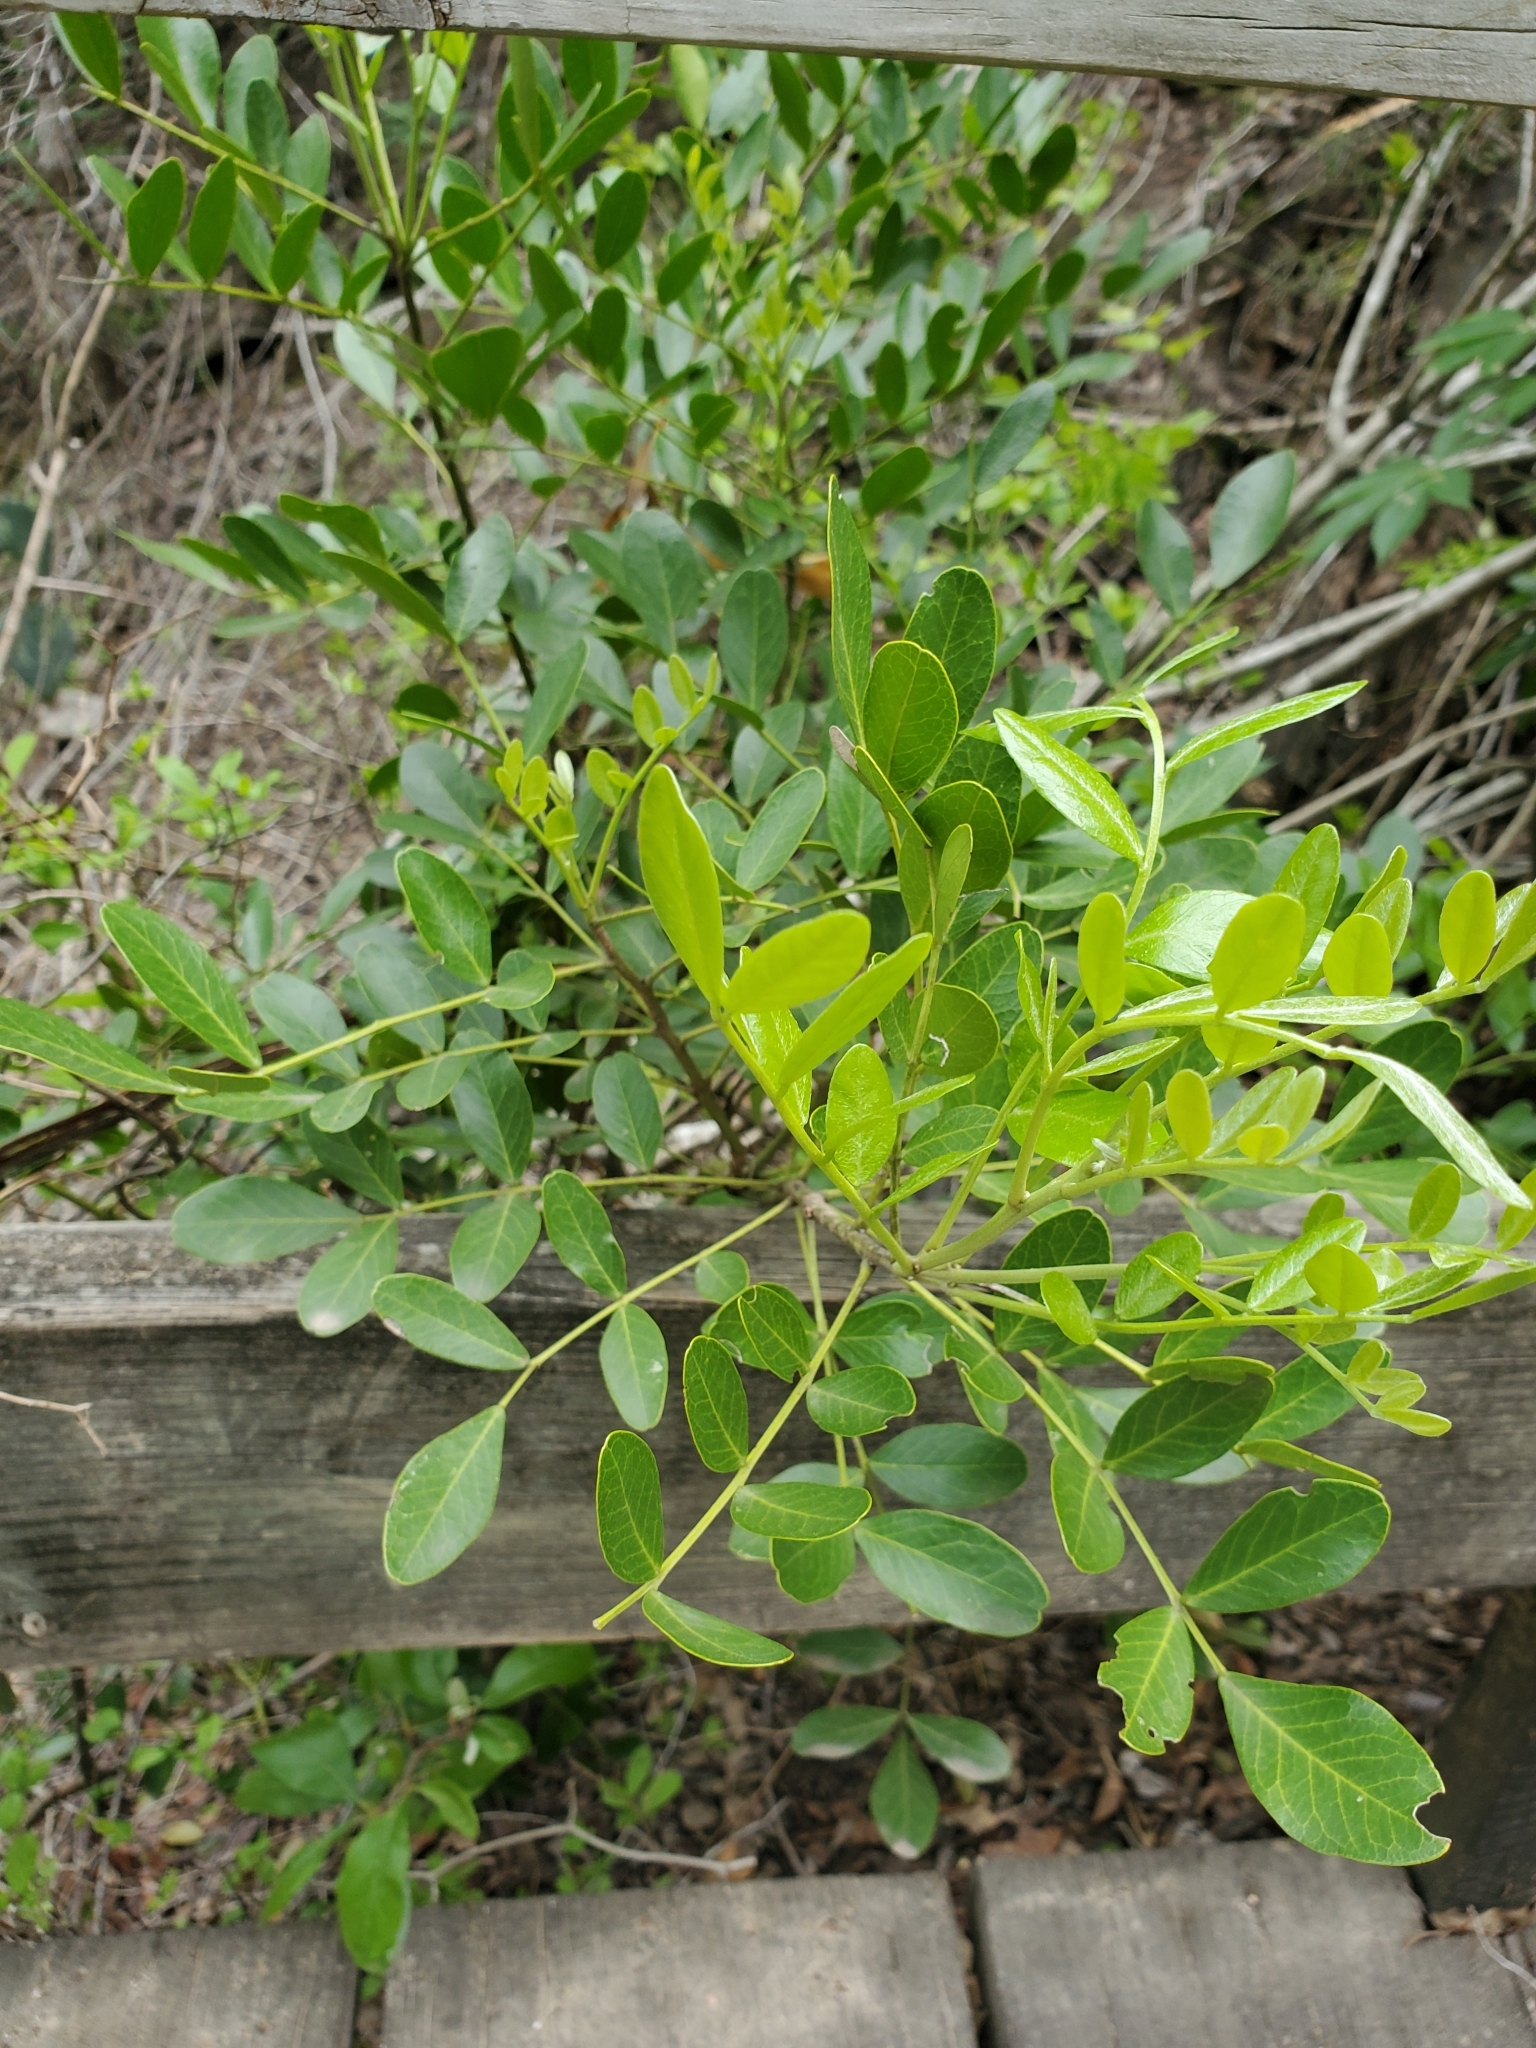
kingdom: Plantae
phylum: Tracheophyta
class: Magnoliopsida
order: Fabales
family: Fabaceae
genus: Dermatophyllum
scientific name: Dermatophyllum secundiflorum
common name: Texas-mountain-laurel
